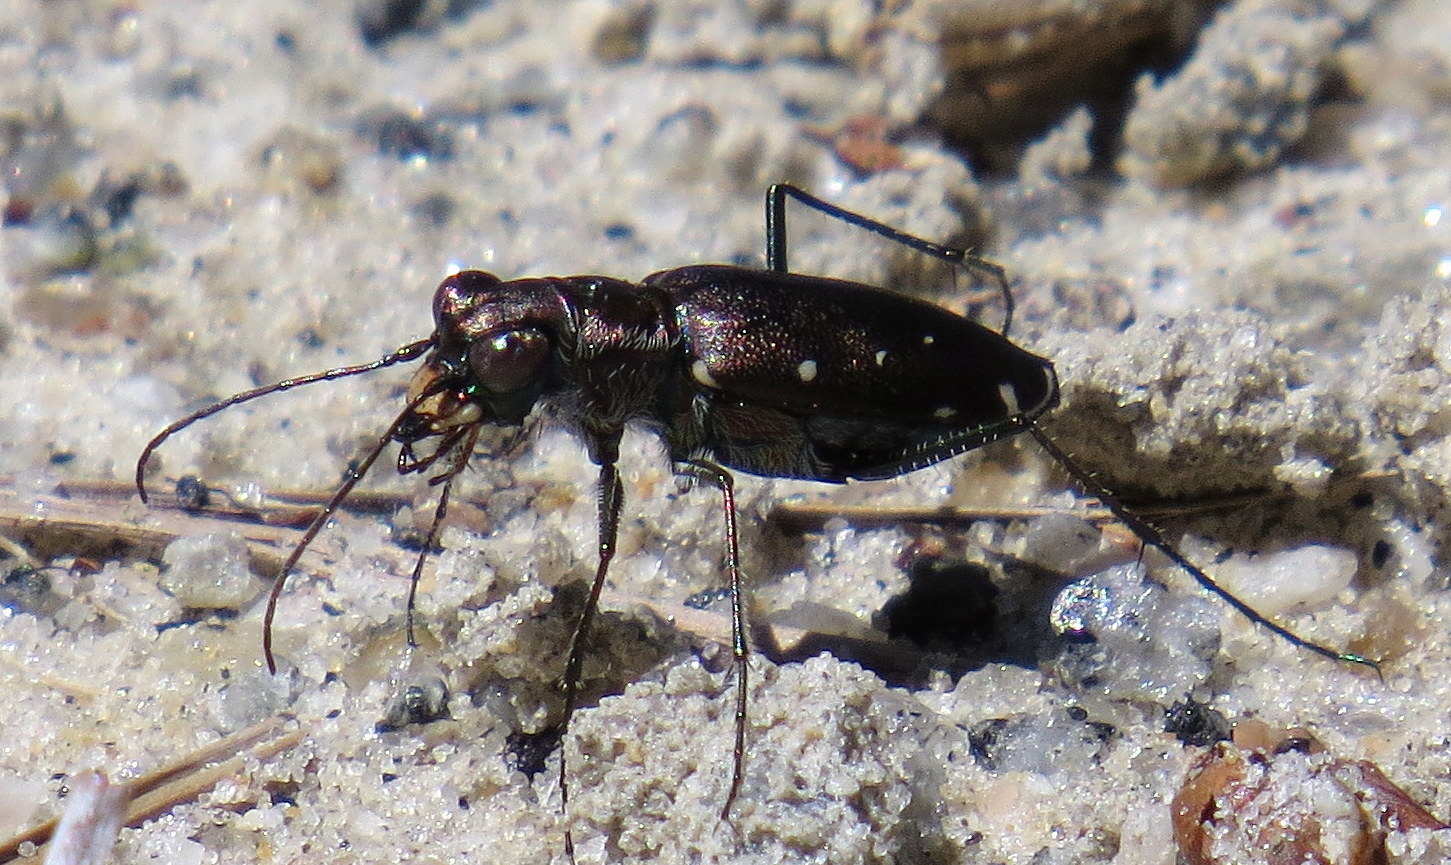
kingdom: Animalia
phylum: Arthropoda
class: Insecta
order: Coleoptera
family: Carabidae
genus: Cicindela
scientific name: Cicindela punctulata
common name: Punctured tiger beetle
